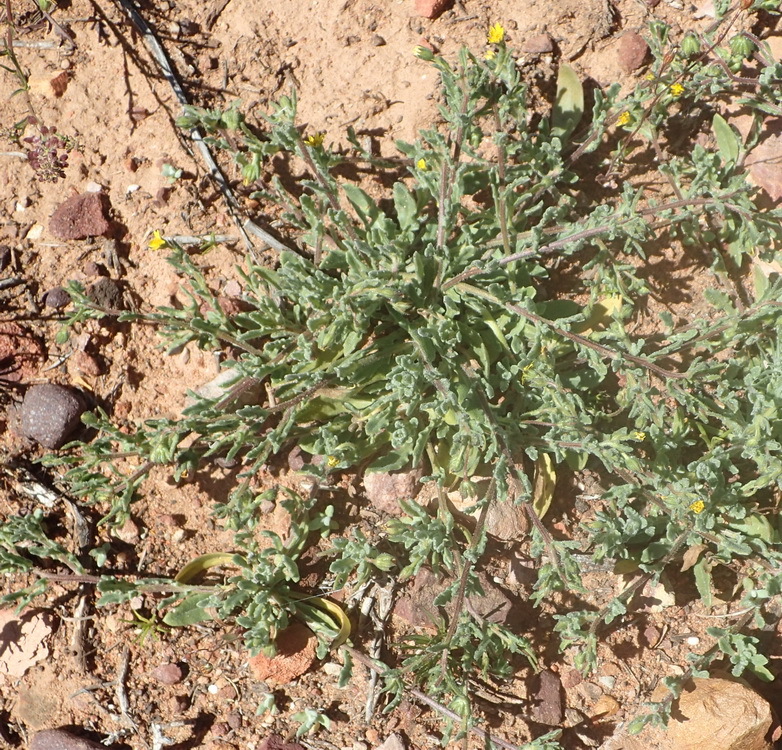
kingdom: Plantae
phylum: Tracheophyta
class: Magnoliopsida
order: Asterales
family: Asteraceae
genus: Osteospermum
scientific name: Osteospermum calendulaceum
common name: Stinking roger
